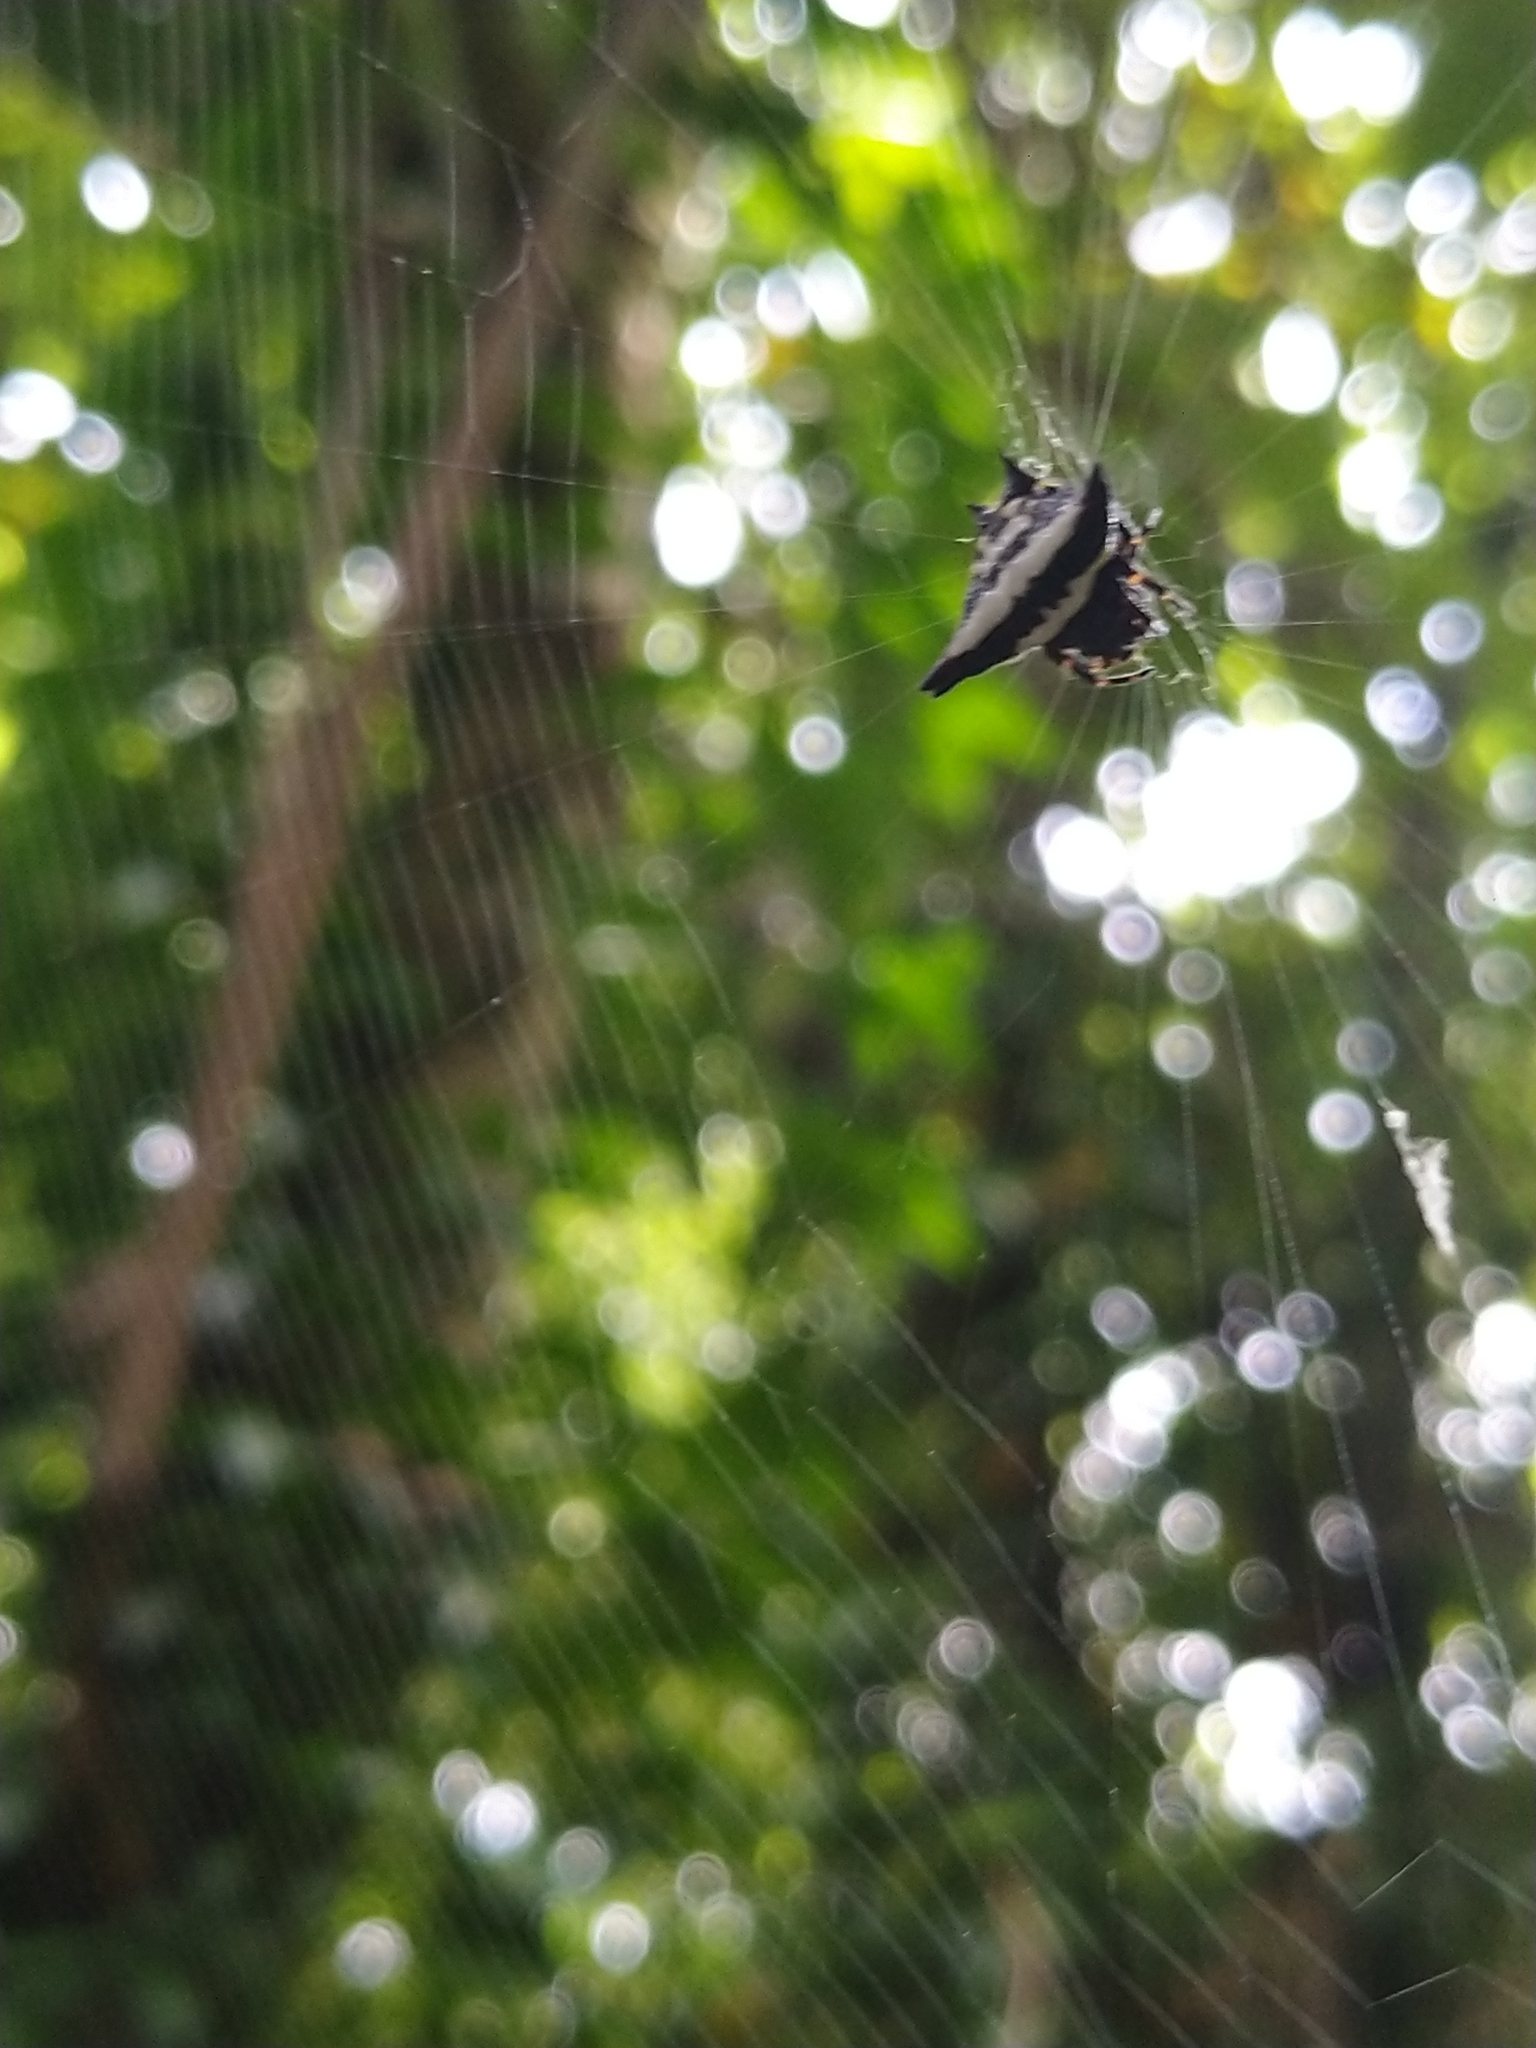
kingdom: Animalia
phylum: Arthropoda
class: Arachnida
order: Araneae
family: Araneidae
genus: Gasteracantha
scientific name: Gasteracantha geminata
